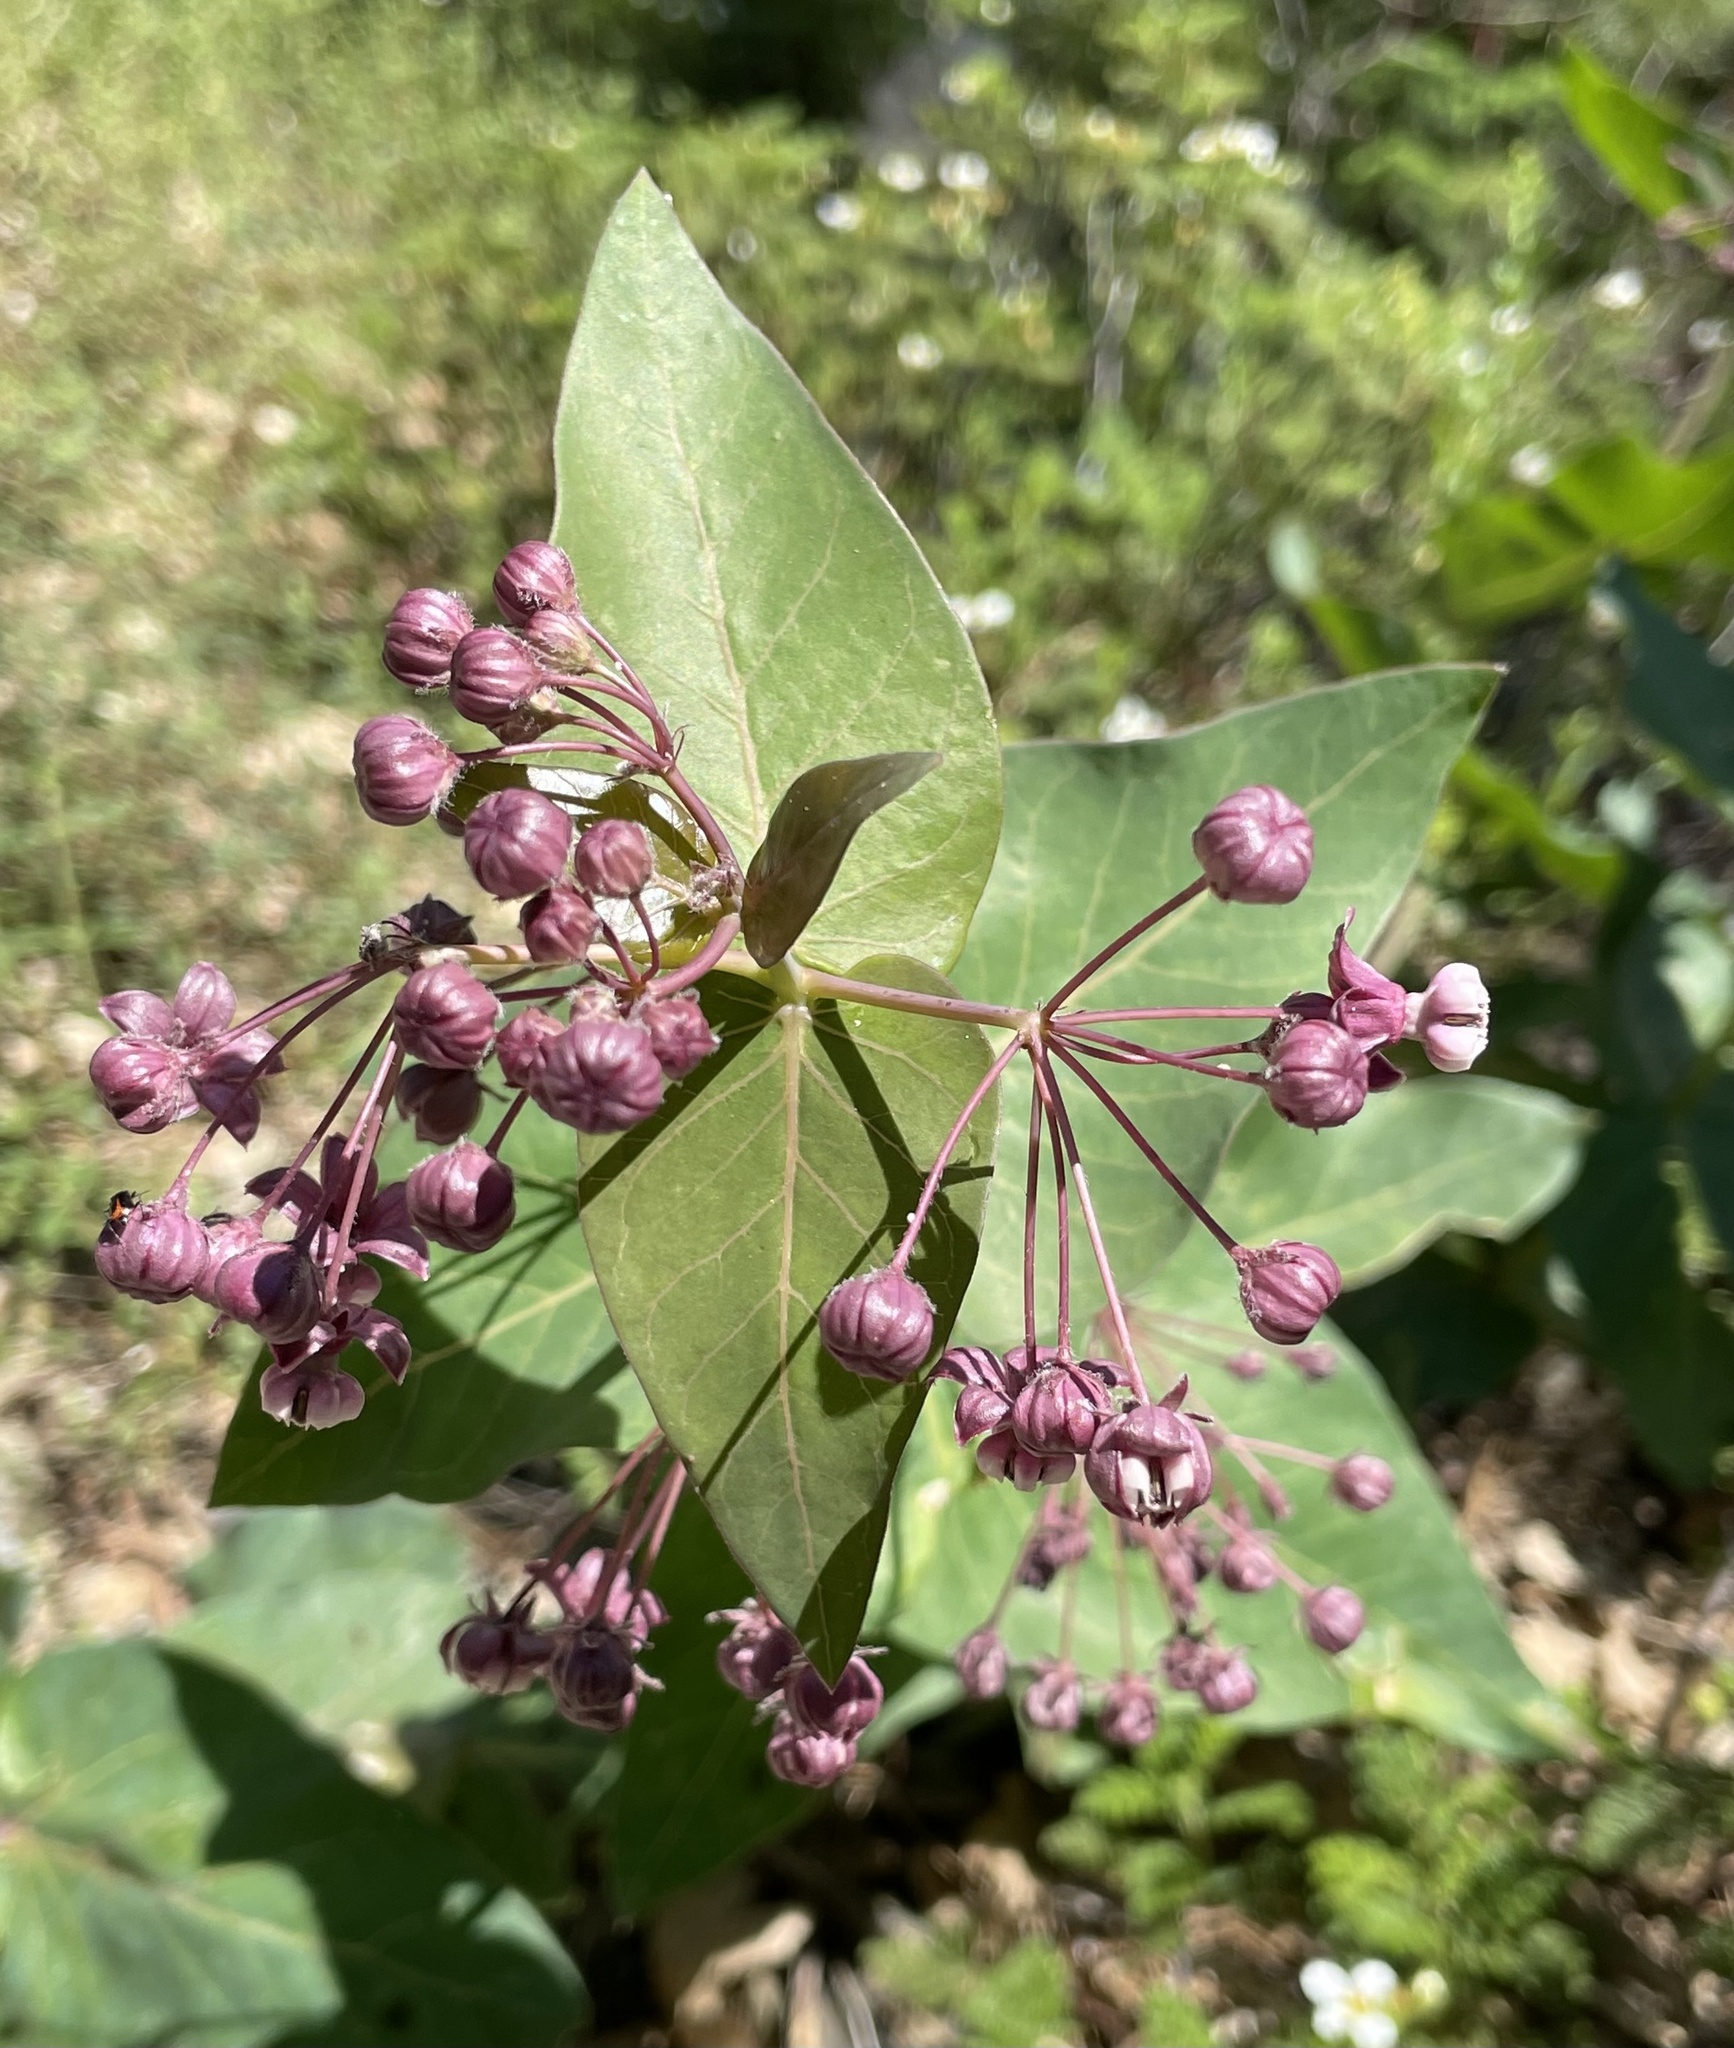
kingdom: Plantae
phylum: Tracheophyta
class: Magnoliopsida
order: Gentianales
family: Apocynaceae
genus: Asclepias
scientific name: Asclepias cordifolia
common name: Purple milkweed
